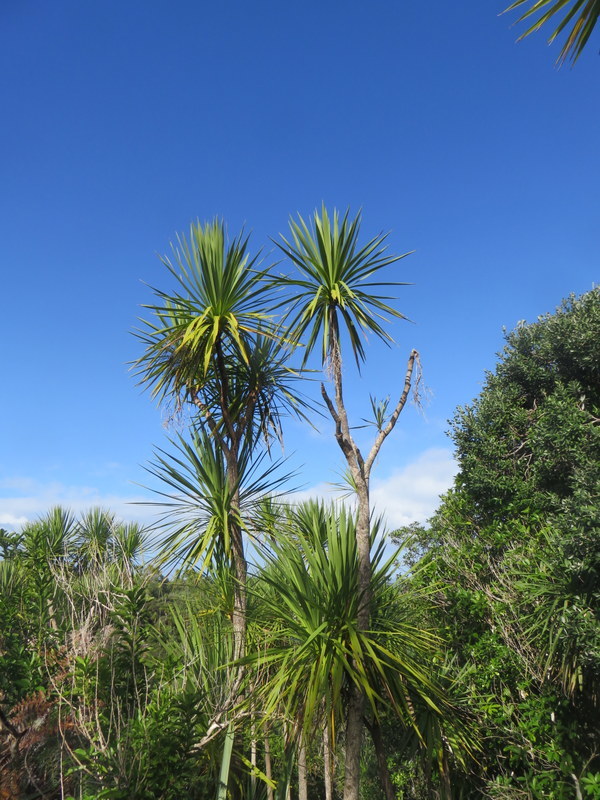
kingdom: Plantae
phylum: Tracheophyta
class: Liliopsida
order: Asparagales
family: Asparagaceae
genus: Cordyline
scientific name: Cordyline australis
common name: Cabbage-palm
